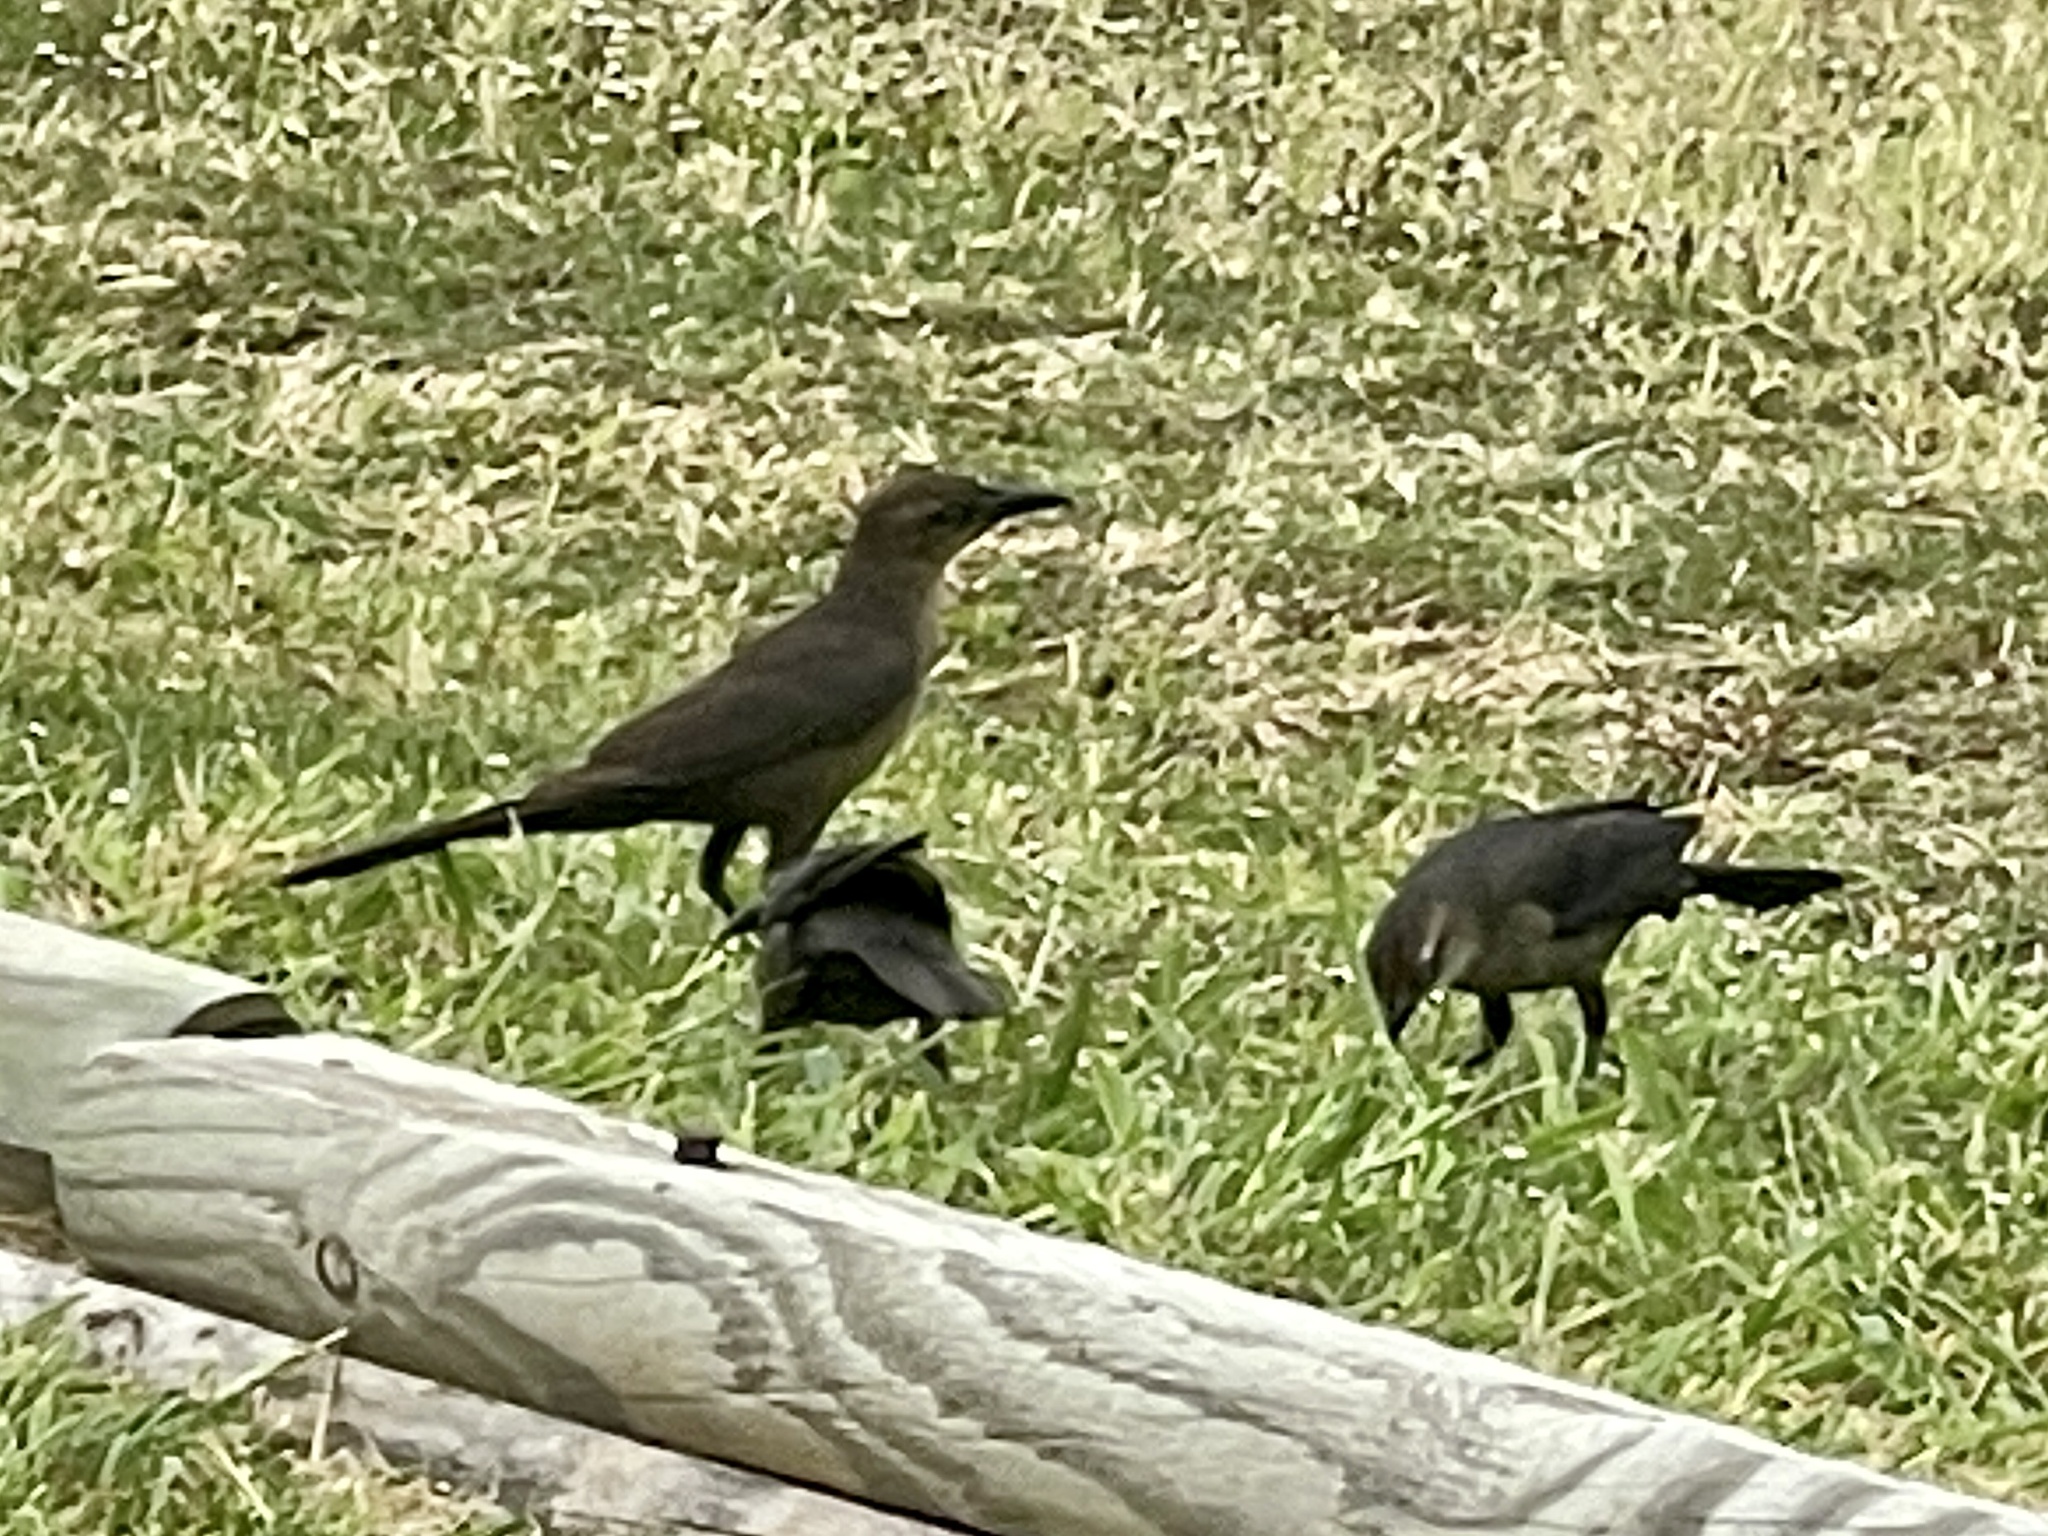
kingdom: Animalia
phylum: Chordata
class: Aves
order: Passeriformes
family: Icteridae
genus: Quiscalus
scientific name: Quiscalus mexicanus
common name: Great-tailed grackle
